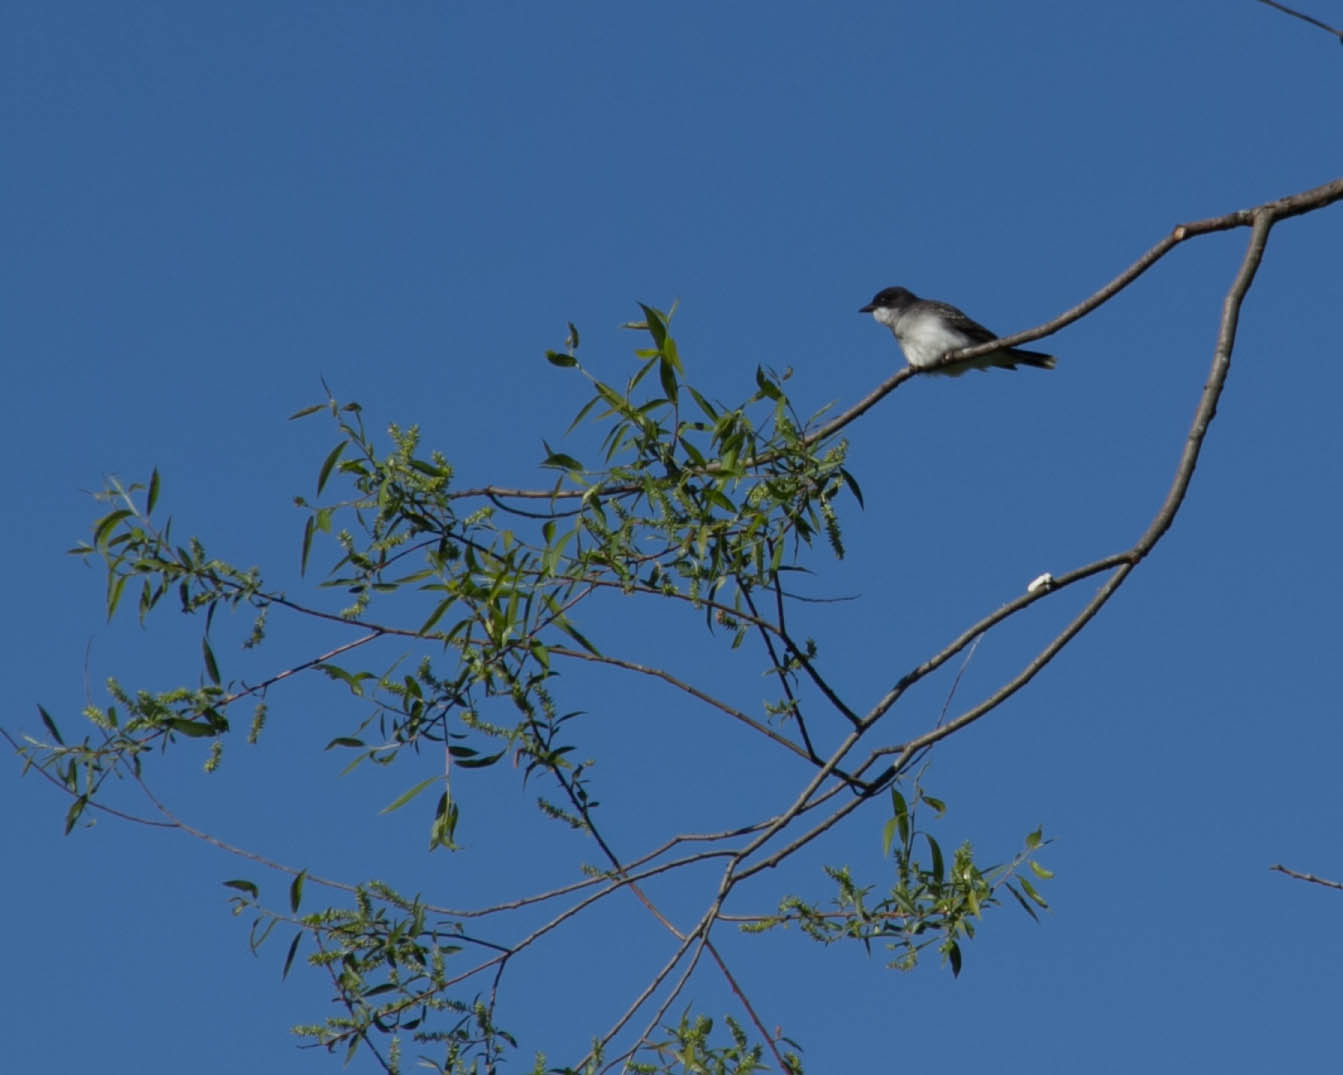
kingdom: Animalia
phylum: Chordata
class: Aves
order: Passeriformes
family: Tyrannidae
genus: Tyrannus
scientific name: Tyrannus tyrannus
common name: Eastern kingbird
